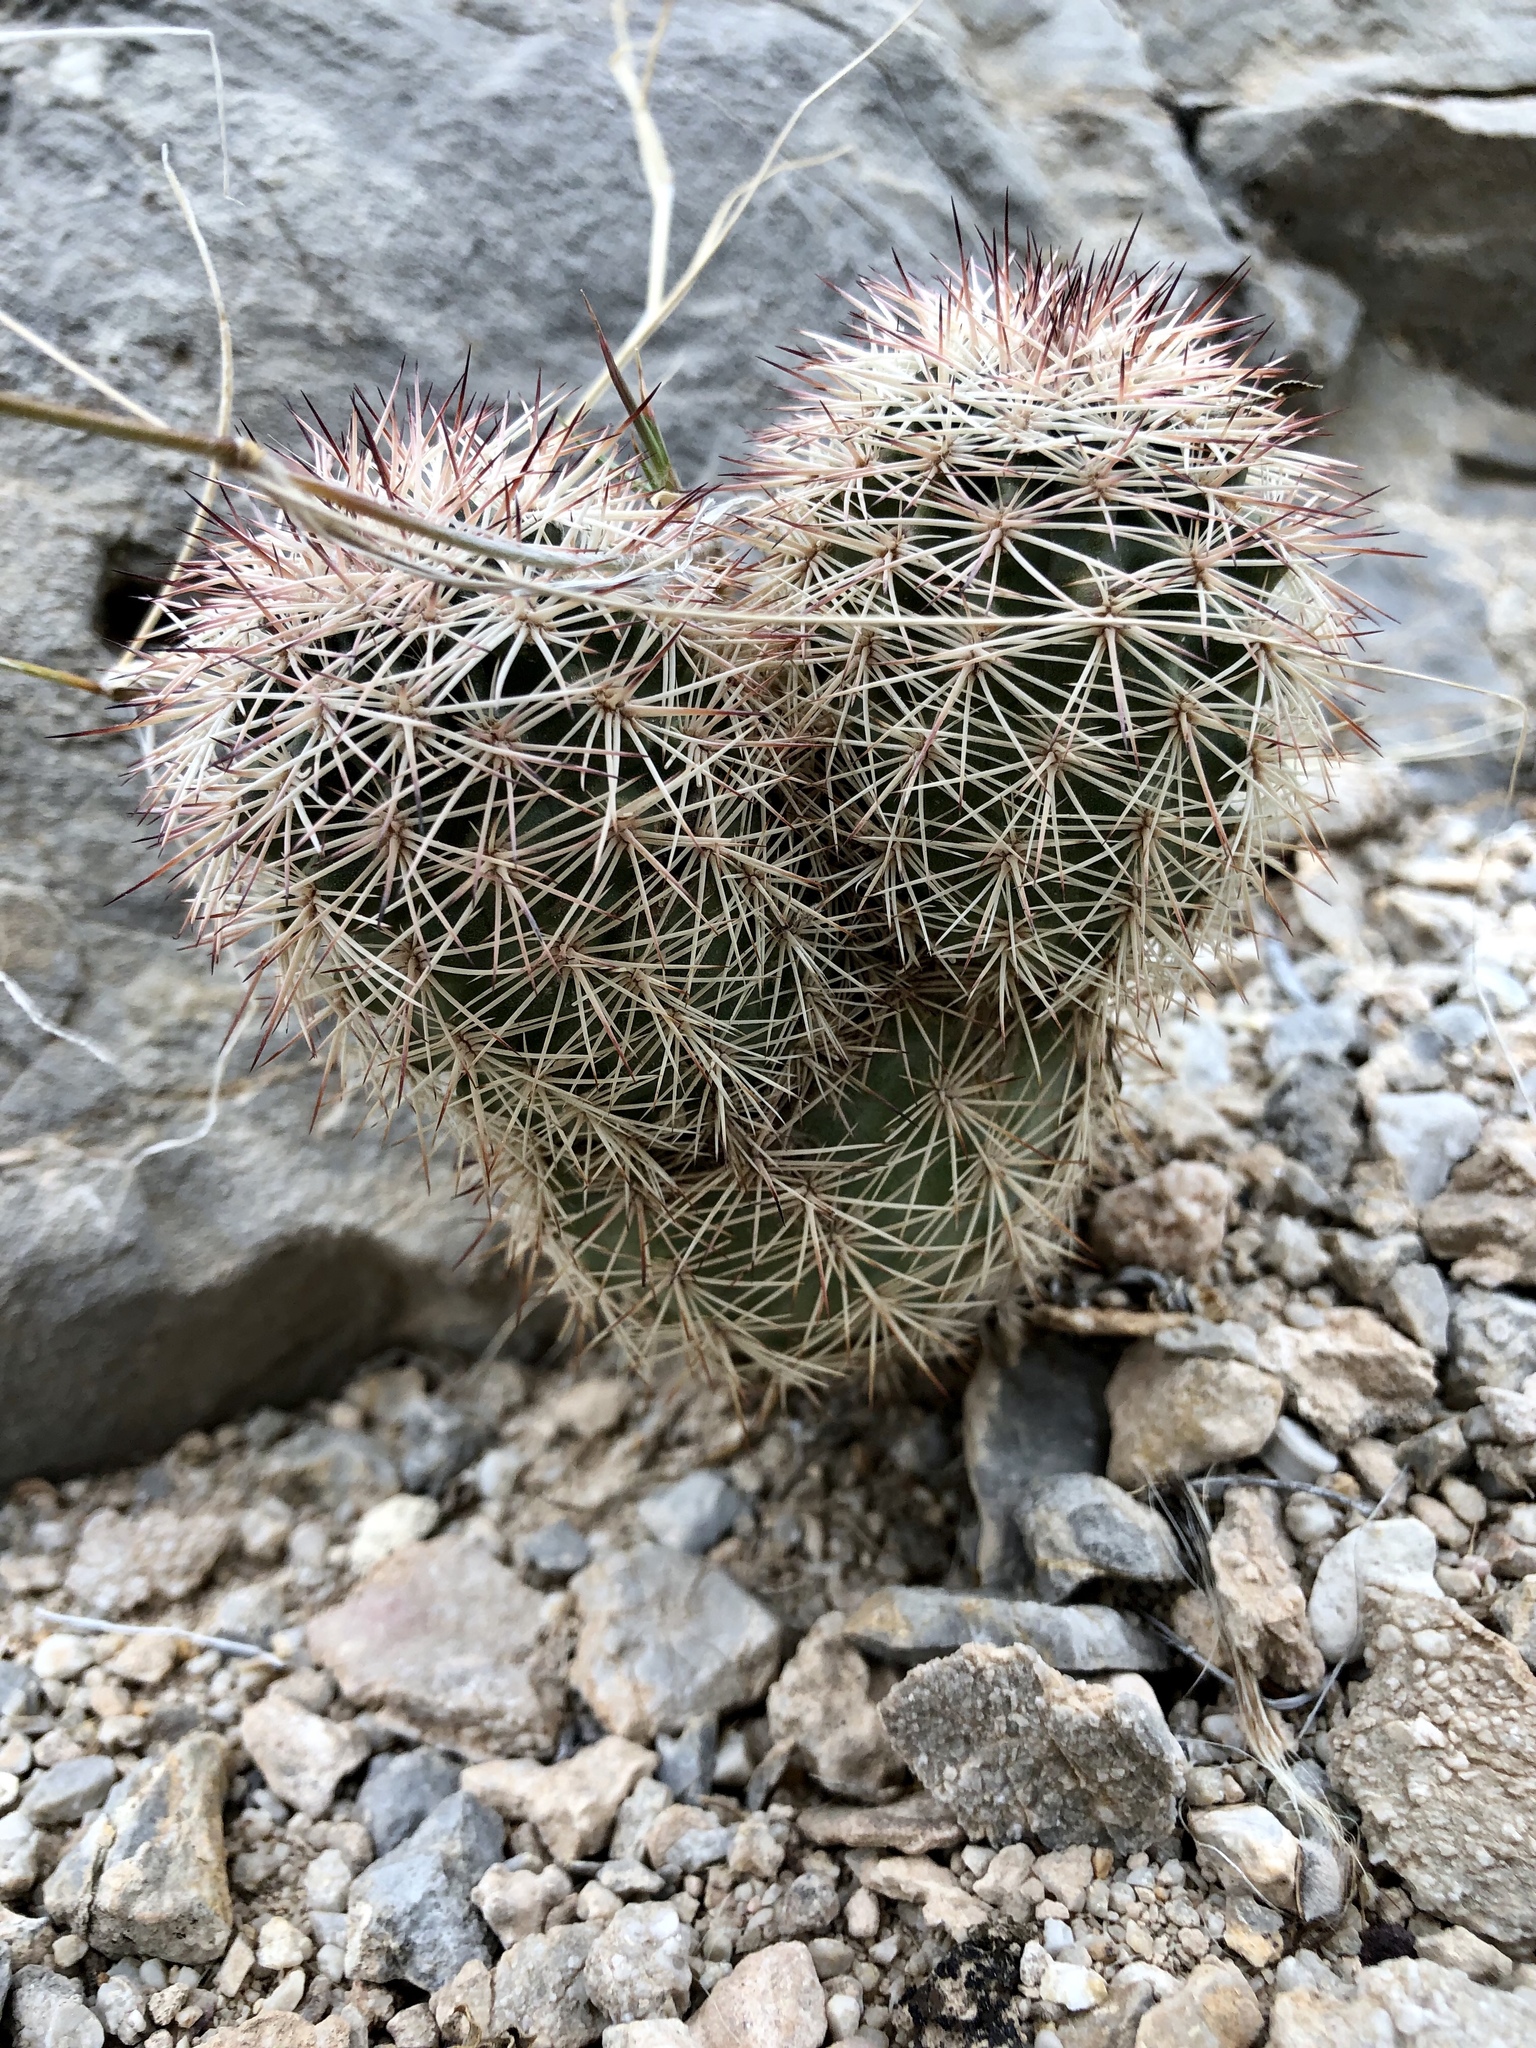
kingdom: Plantae
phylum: Tracheophyta
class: Magnoliopsida
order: Caryophyllales
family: Cactaceae
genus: Echinocereus
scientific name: Echinocereus dasyacanthus
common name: Spiny hedgehog cactus
